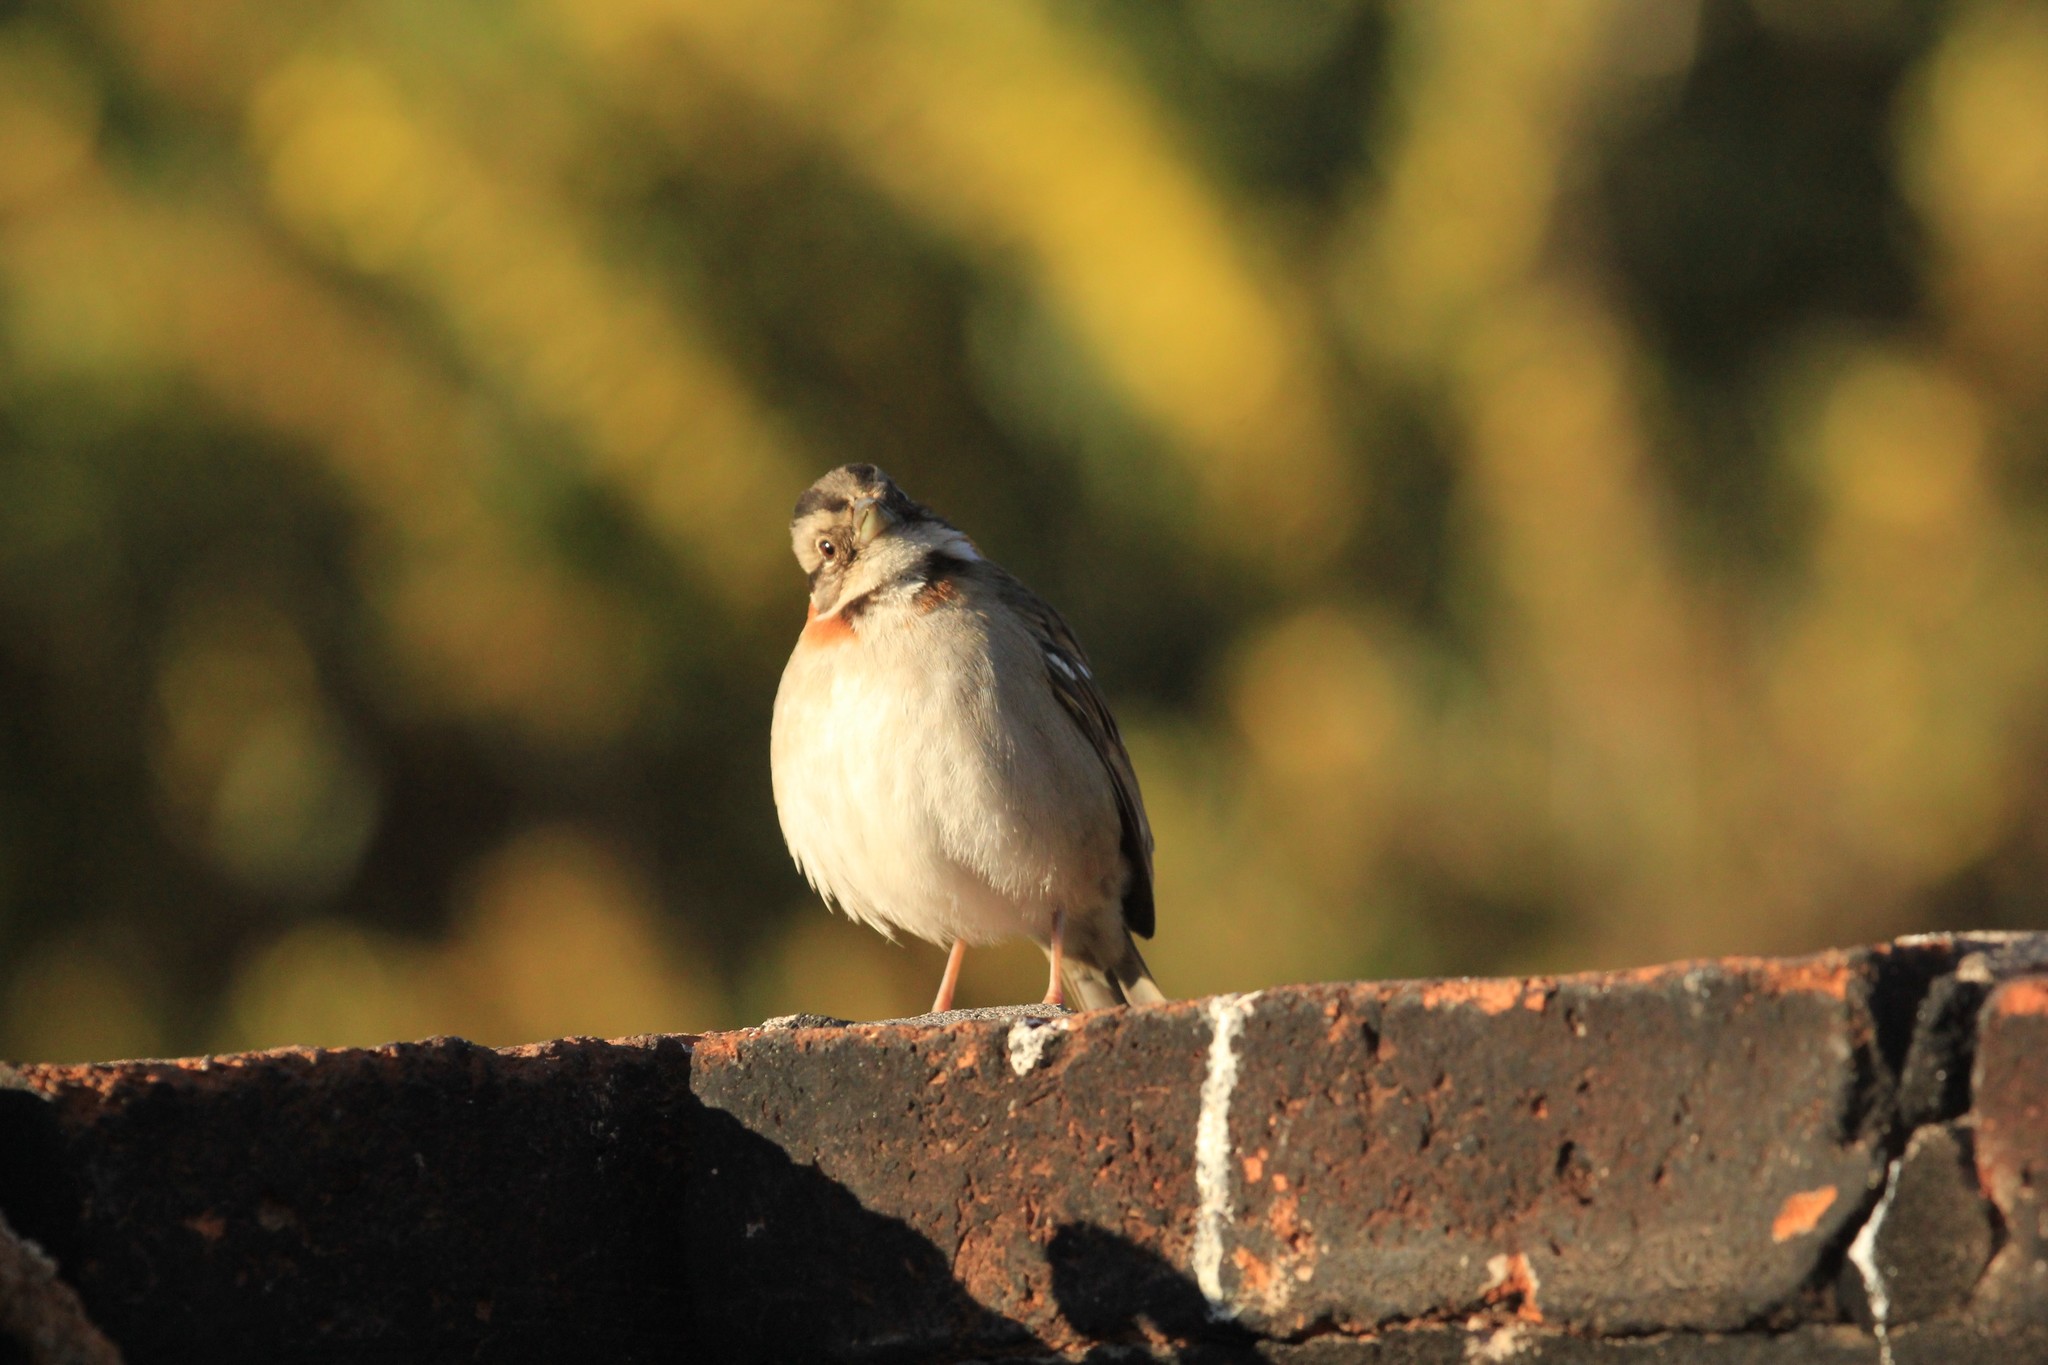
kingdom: Animalia
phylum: Chordata
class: Aves
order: Passeriformes
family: Passerellidae
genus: Zonotrichia
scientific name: Zonotrichia capensis
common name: Rufous-collared sparrow
